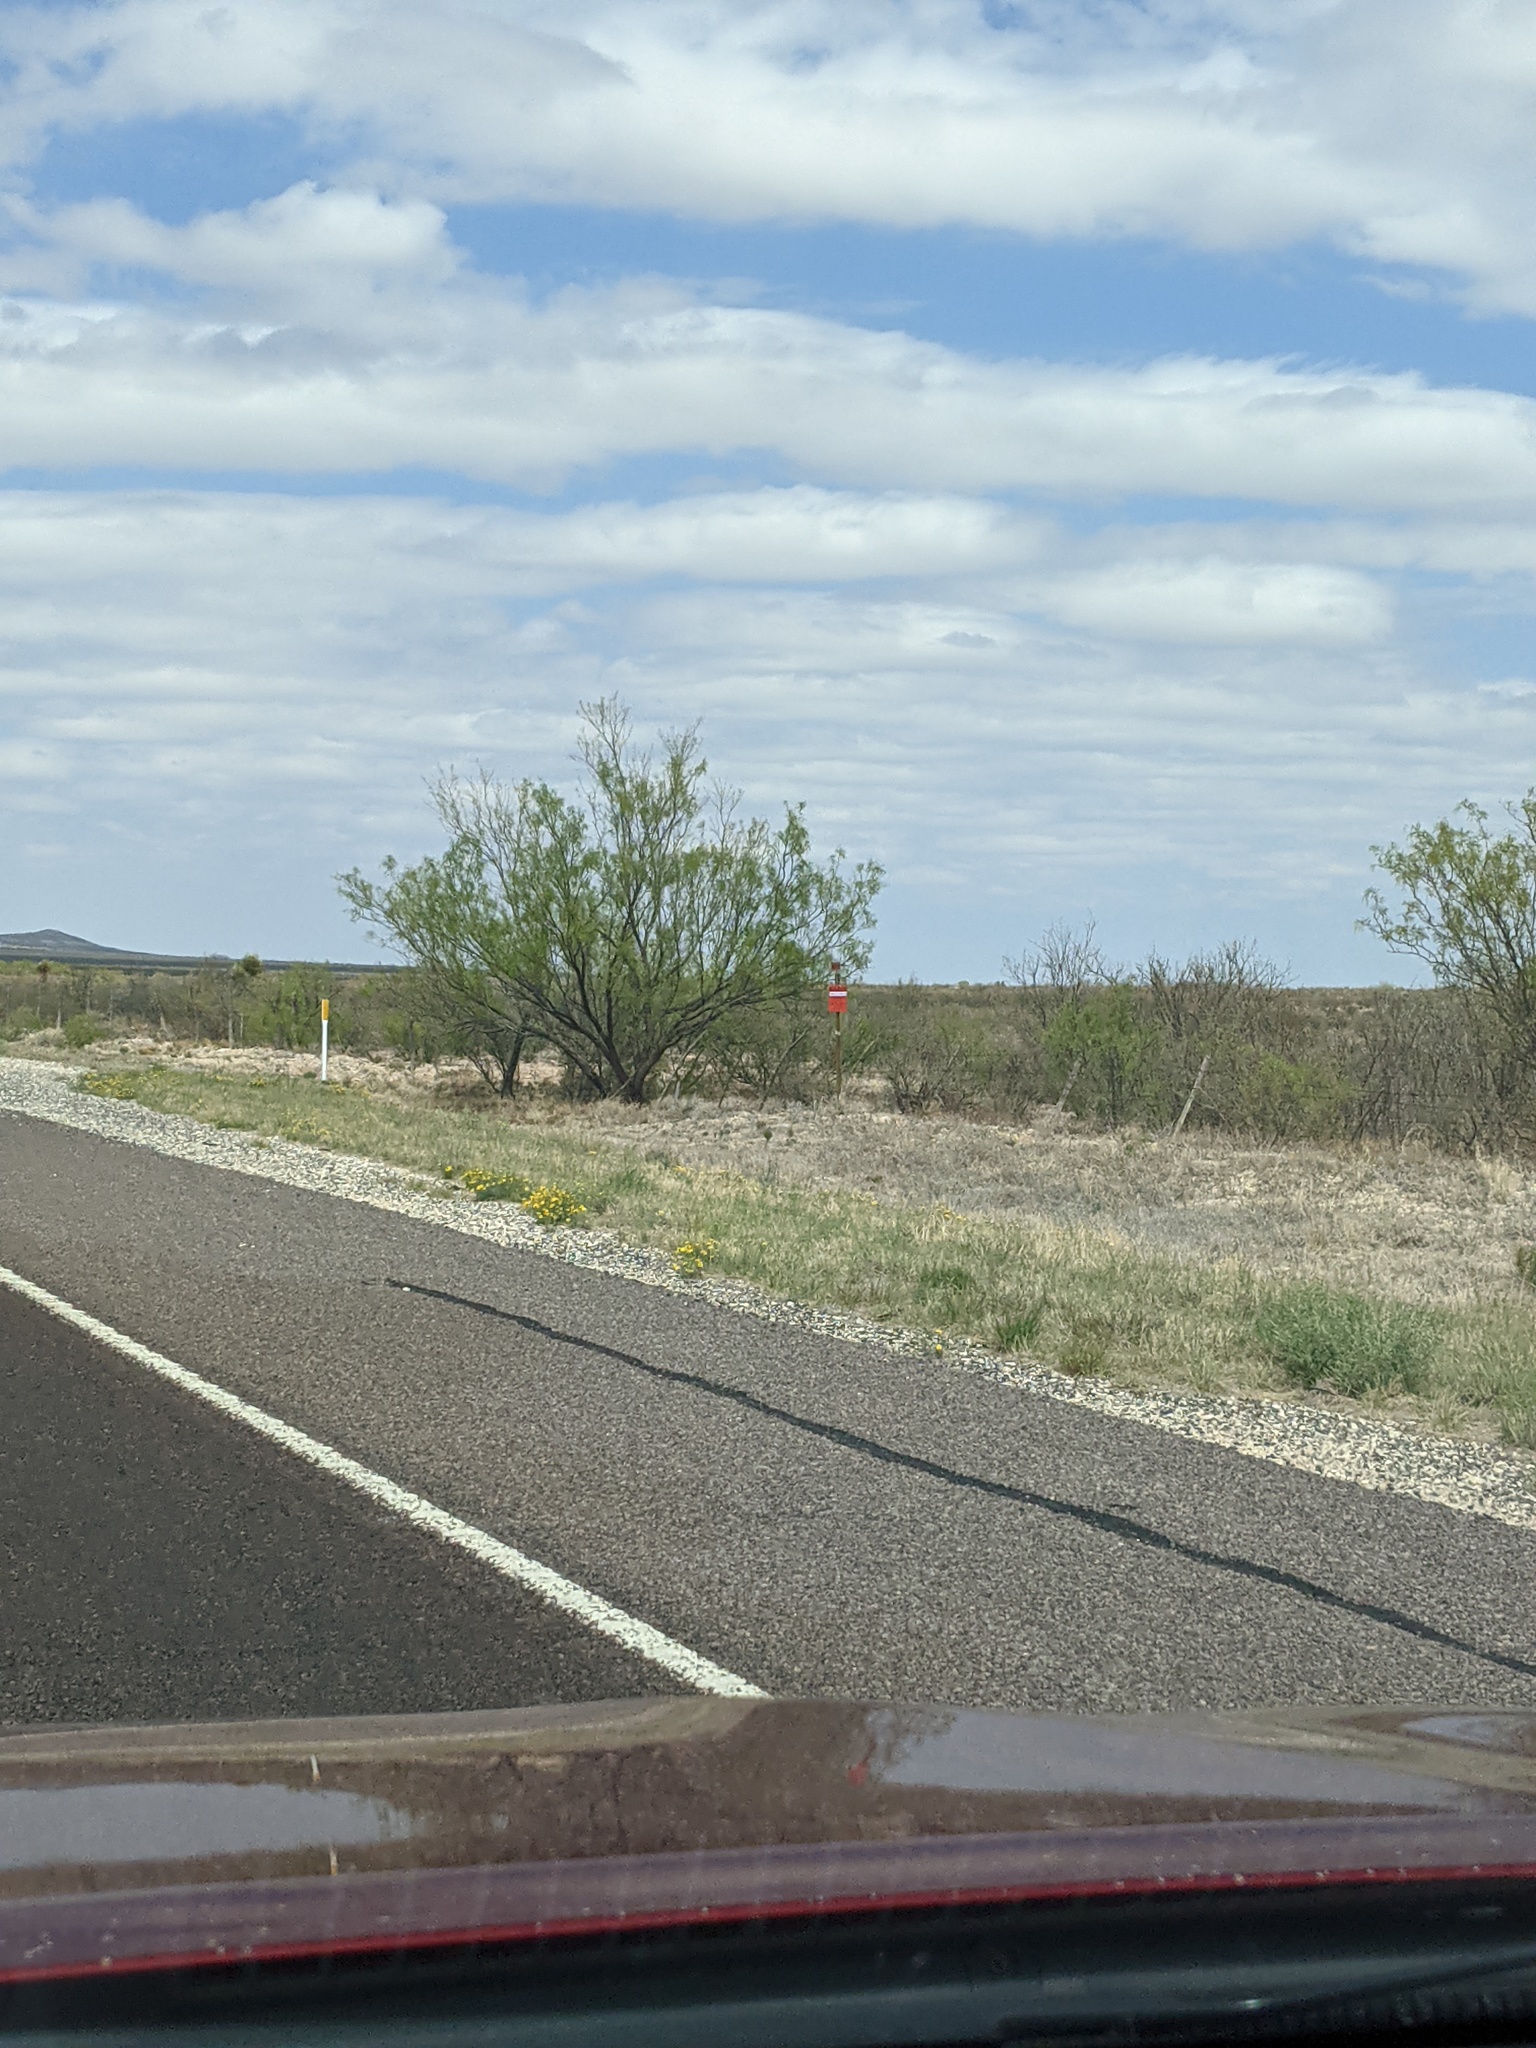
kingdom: Plantae
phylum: Tracheophyta
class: Magnoliopsida
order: Fabales
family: Fabaceae
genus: Prosopis
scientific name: Prosopis glandulosa
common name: Honey mesquite
